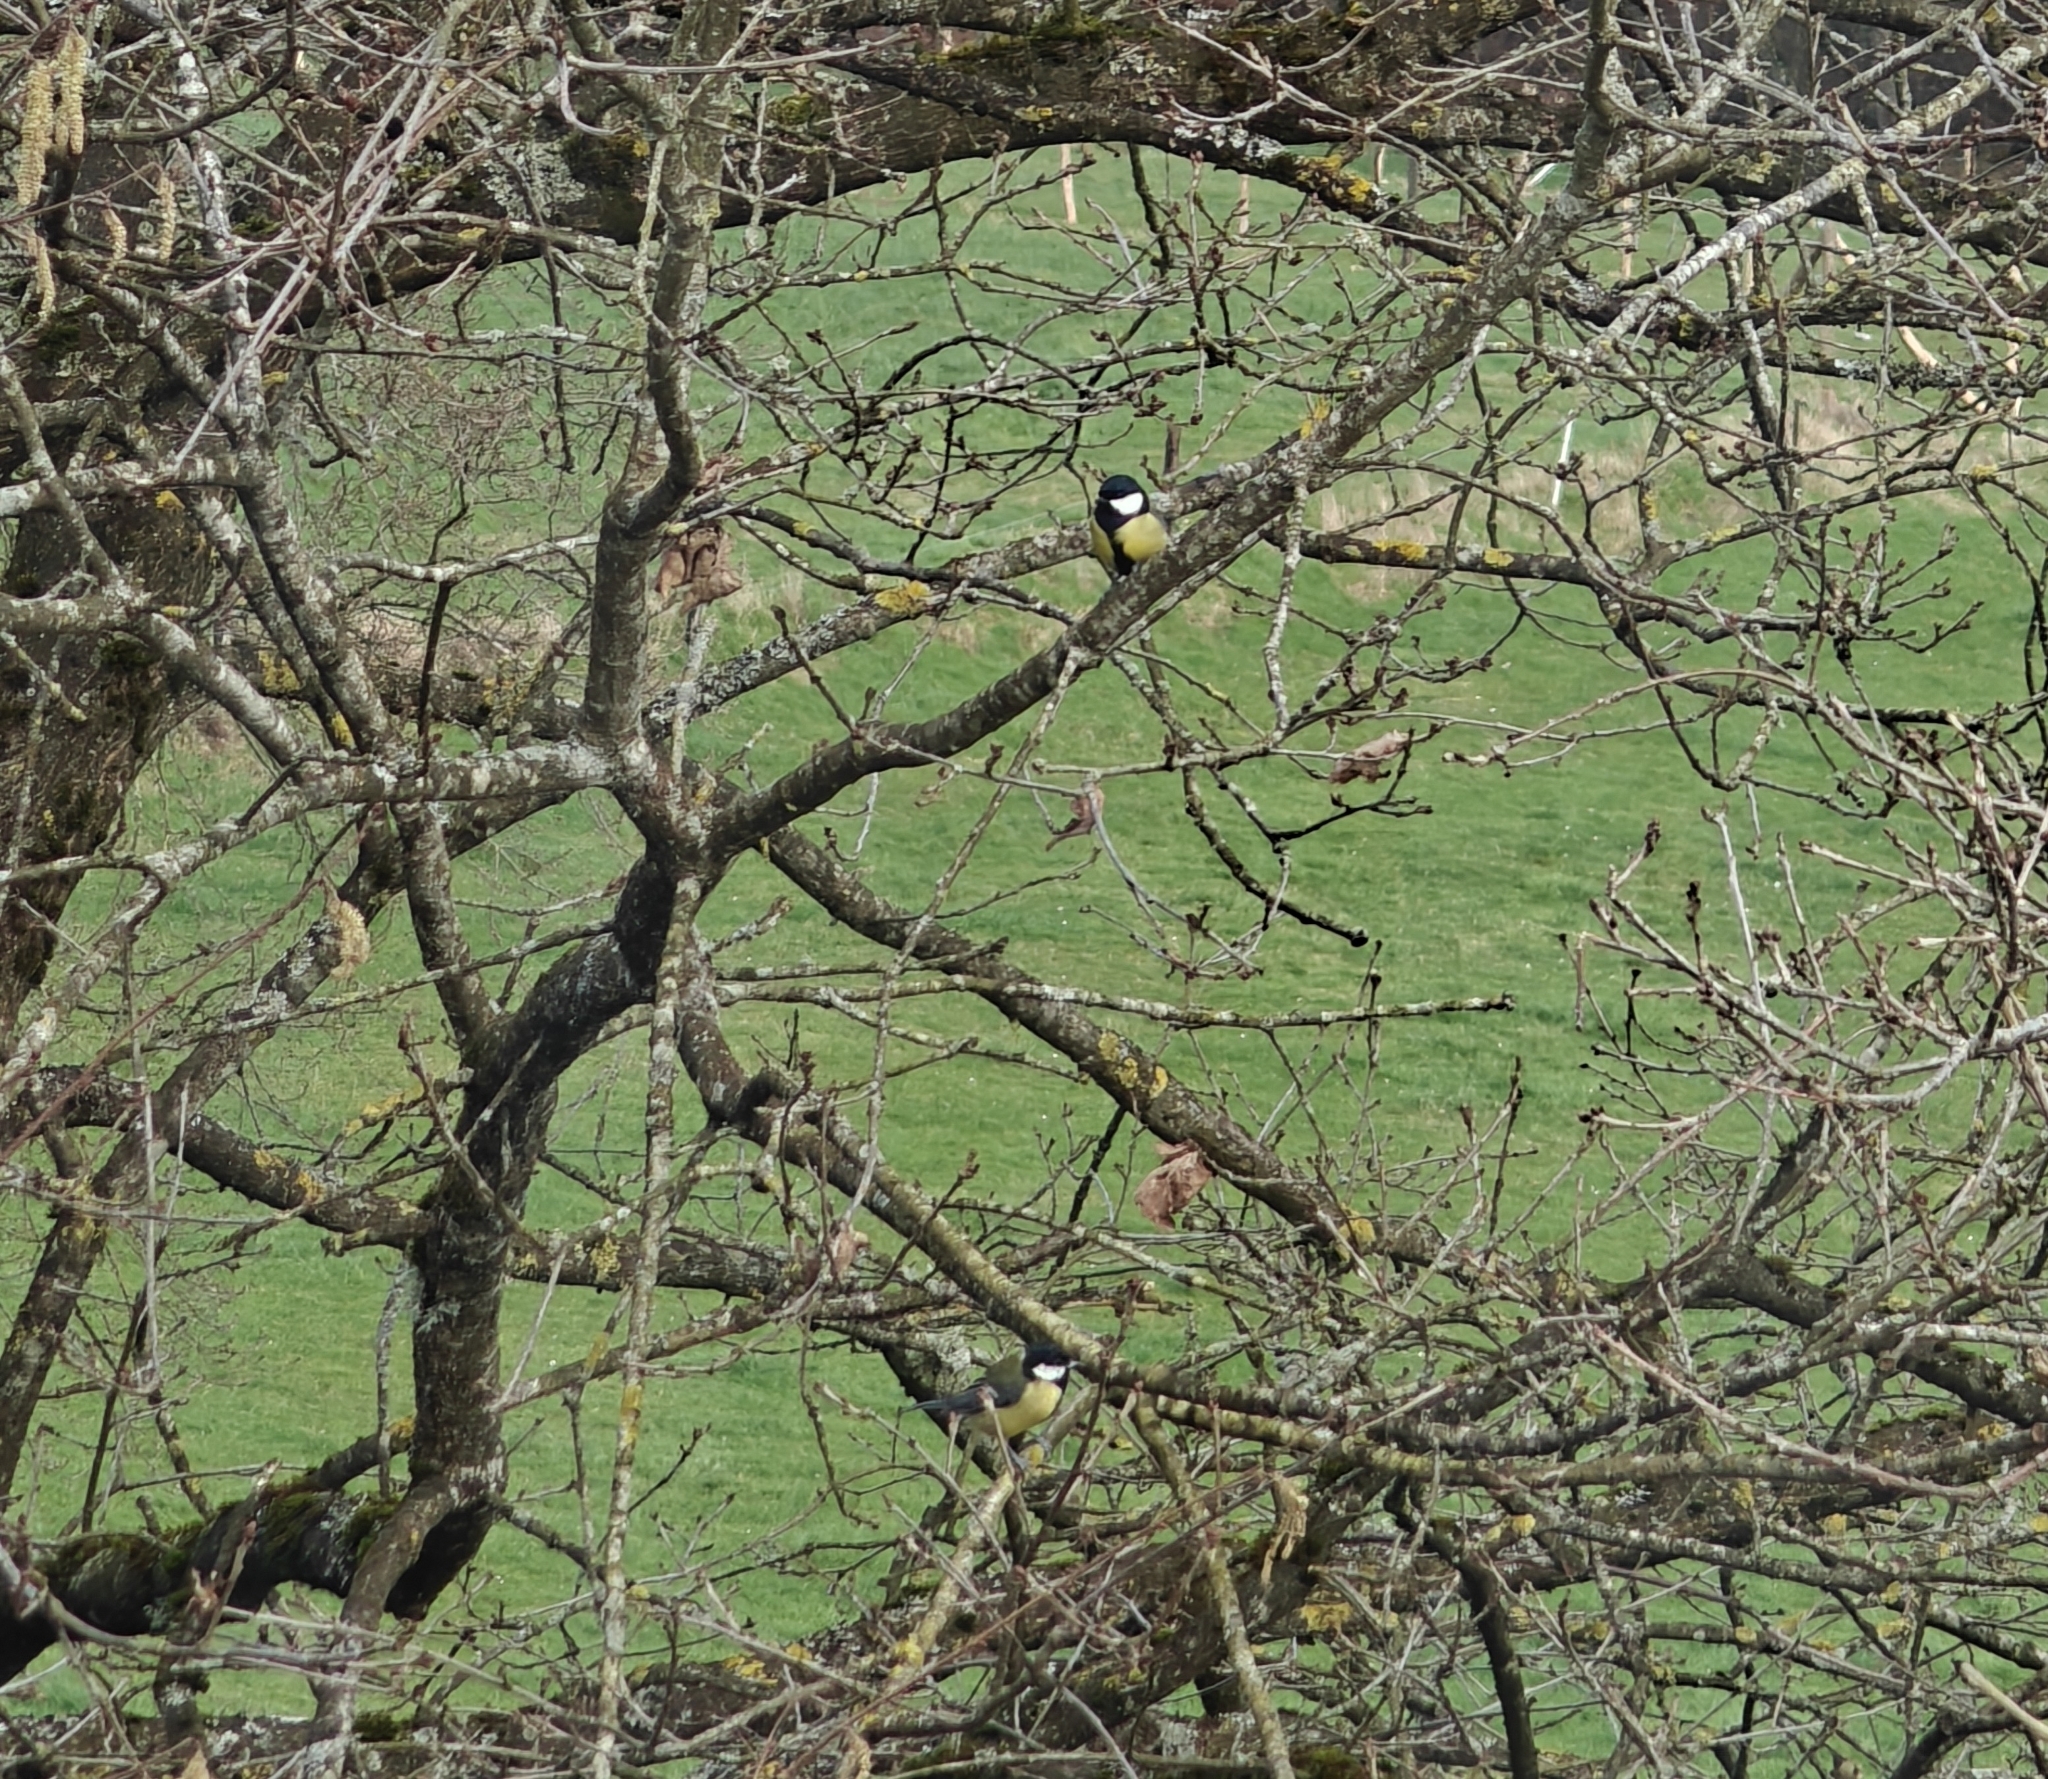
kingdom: Animalia
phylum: Chordata
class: Aves
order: Passeriformes
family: Paridae
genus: Parus
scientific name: Parus major
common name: Great tit
